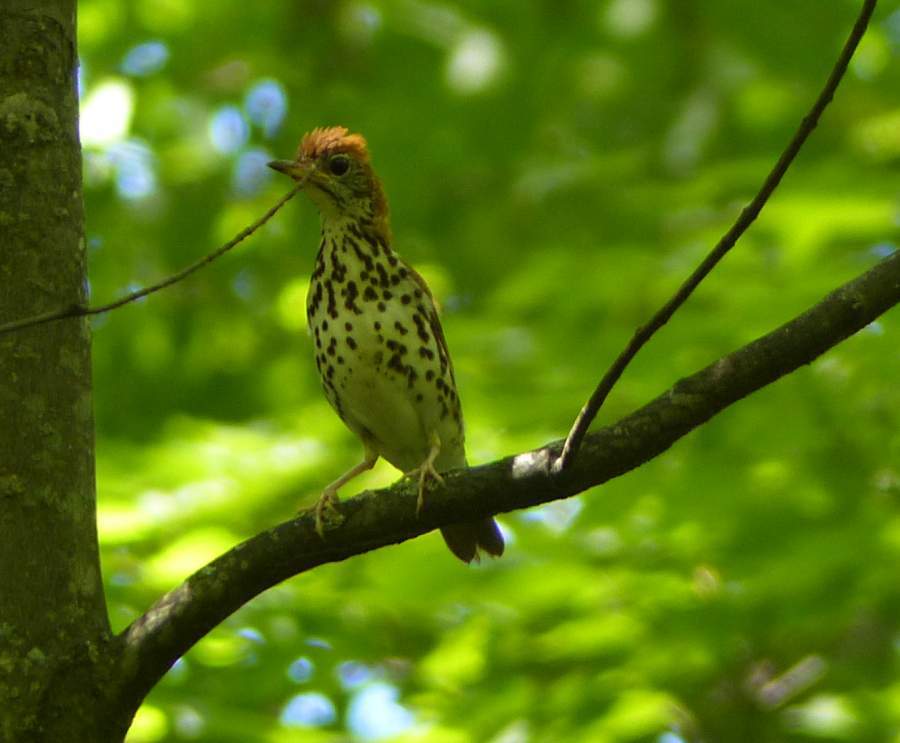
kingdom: Animalia
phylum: Chordata
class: Aves
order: Passeriformes
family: Turdidae
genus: Hylocichla
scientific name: Hylocichla mustelina
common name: Wood thrush
